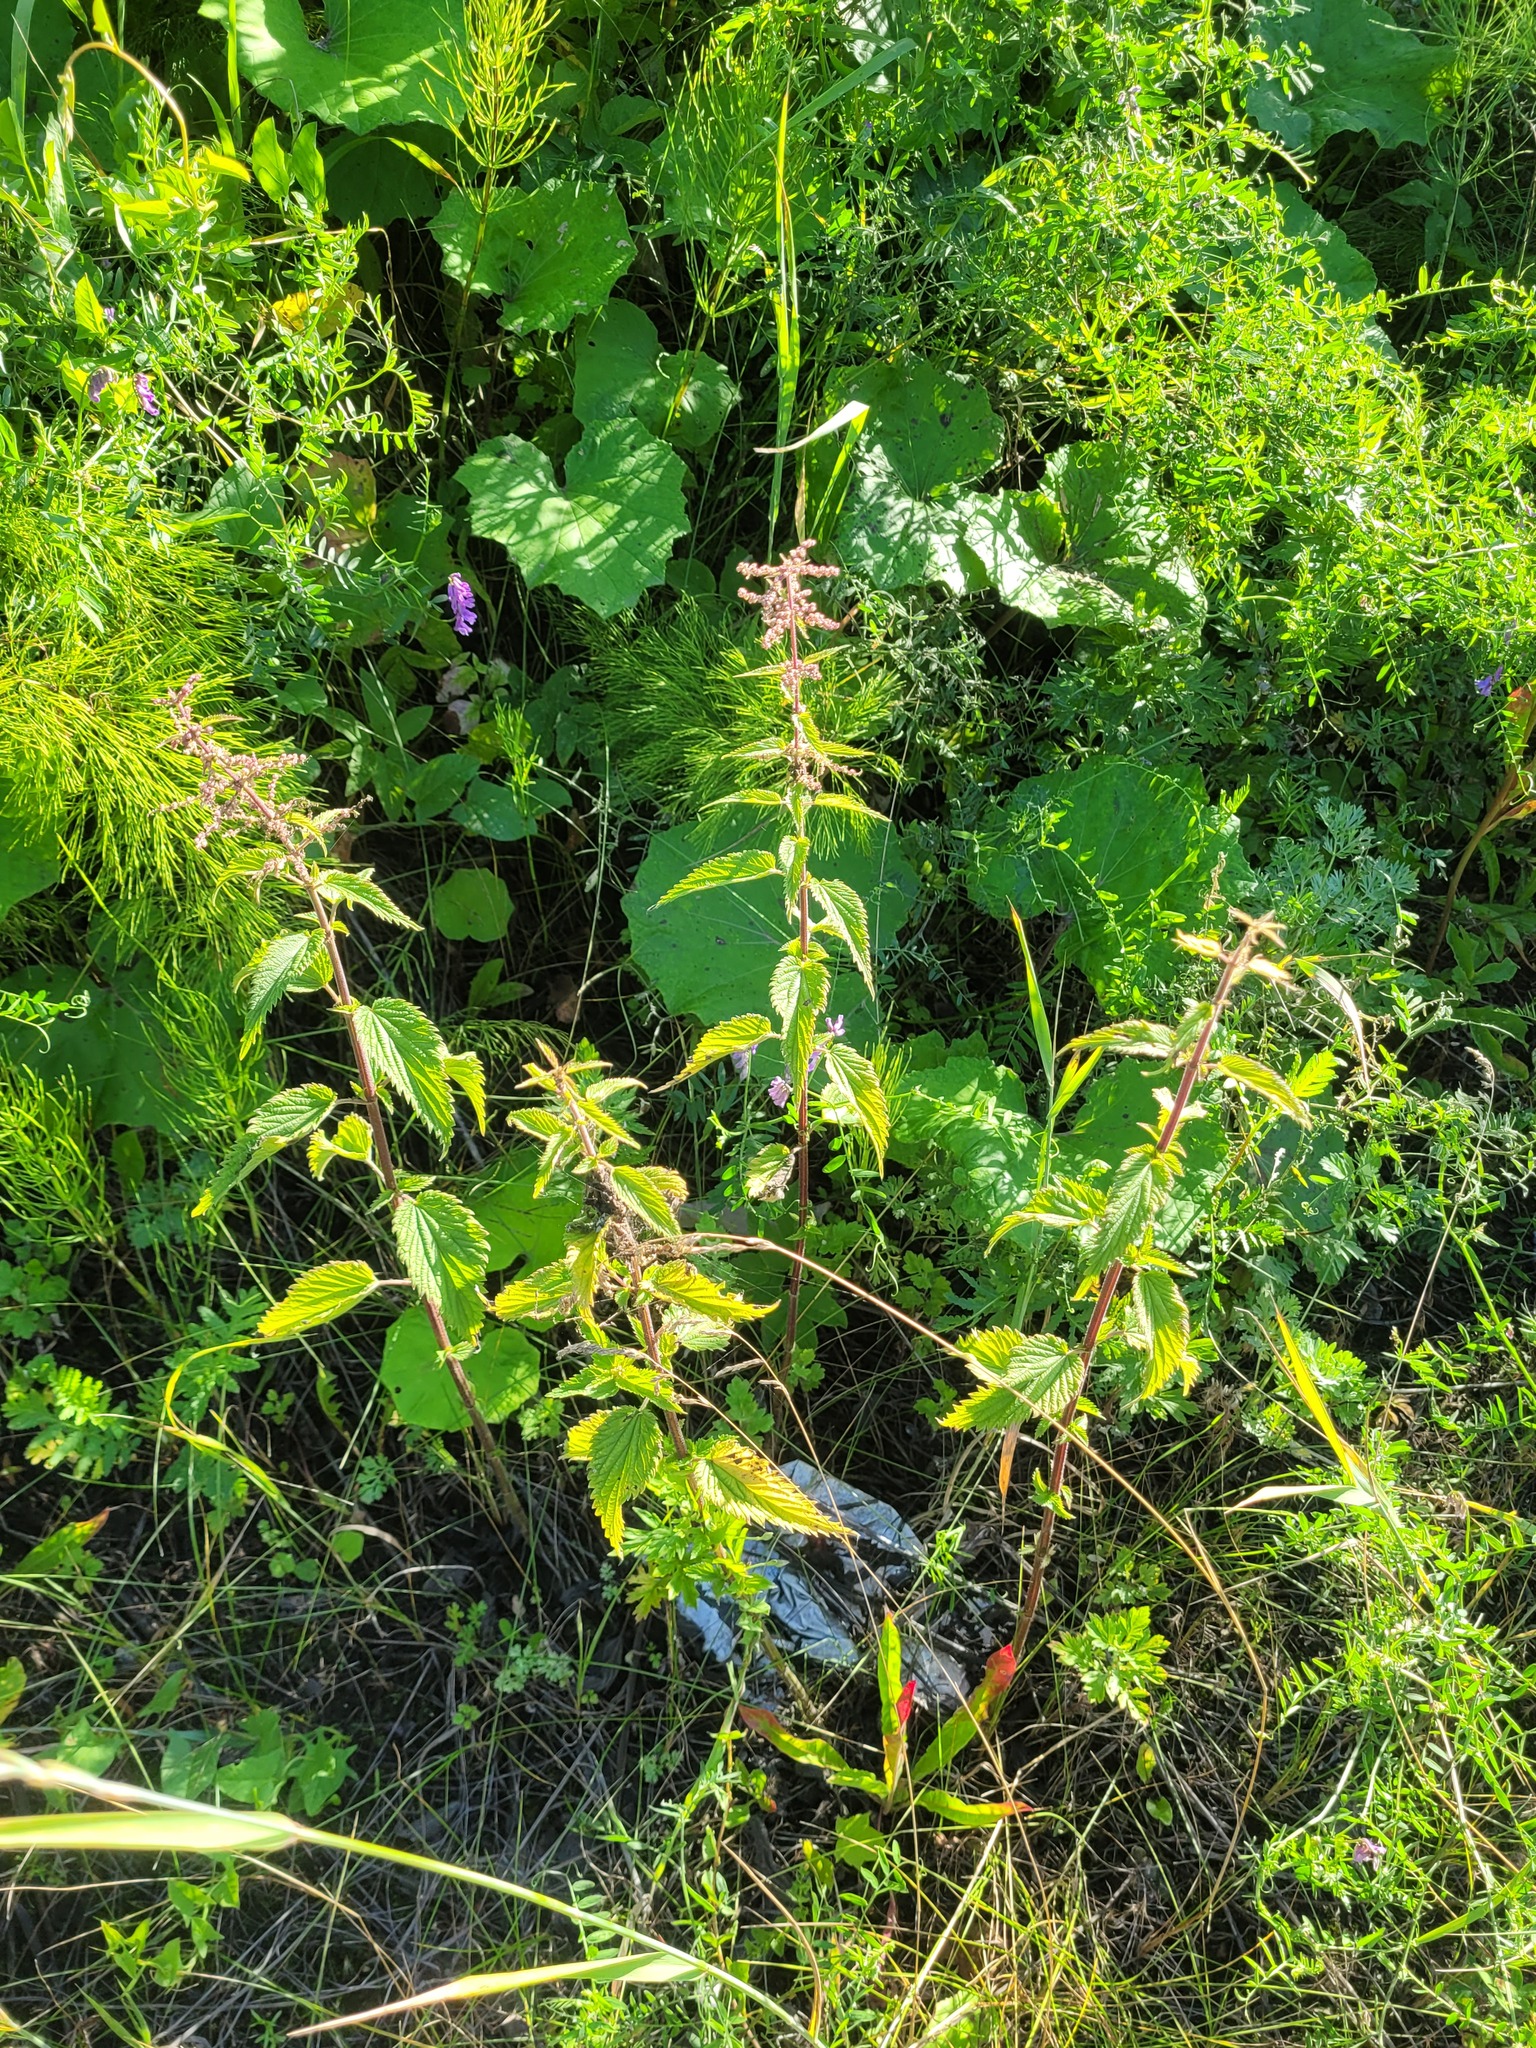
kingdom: Plantae
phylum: Tracheophyta
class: Magnoliopsida
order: Rosales
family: Urticaceae
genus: Urtica
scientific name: Urtica dioica
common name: Common nettle
